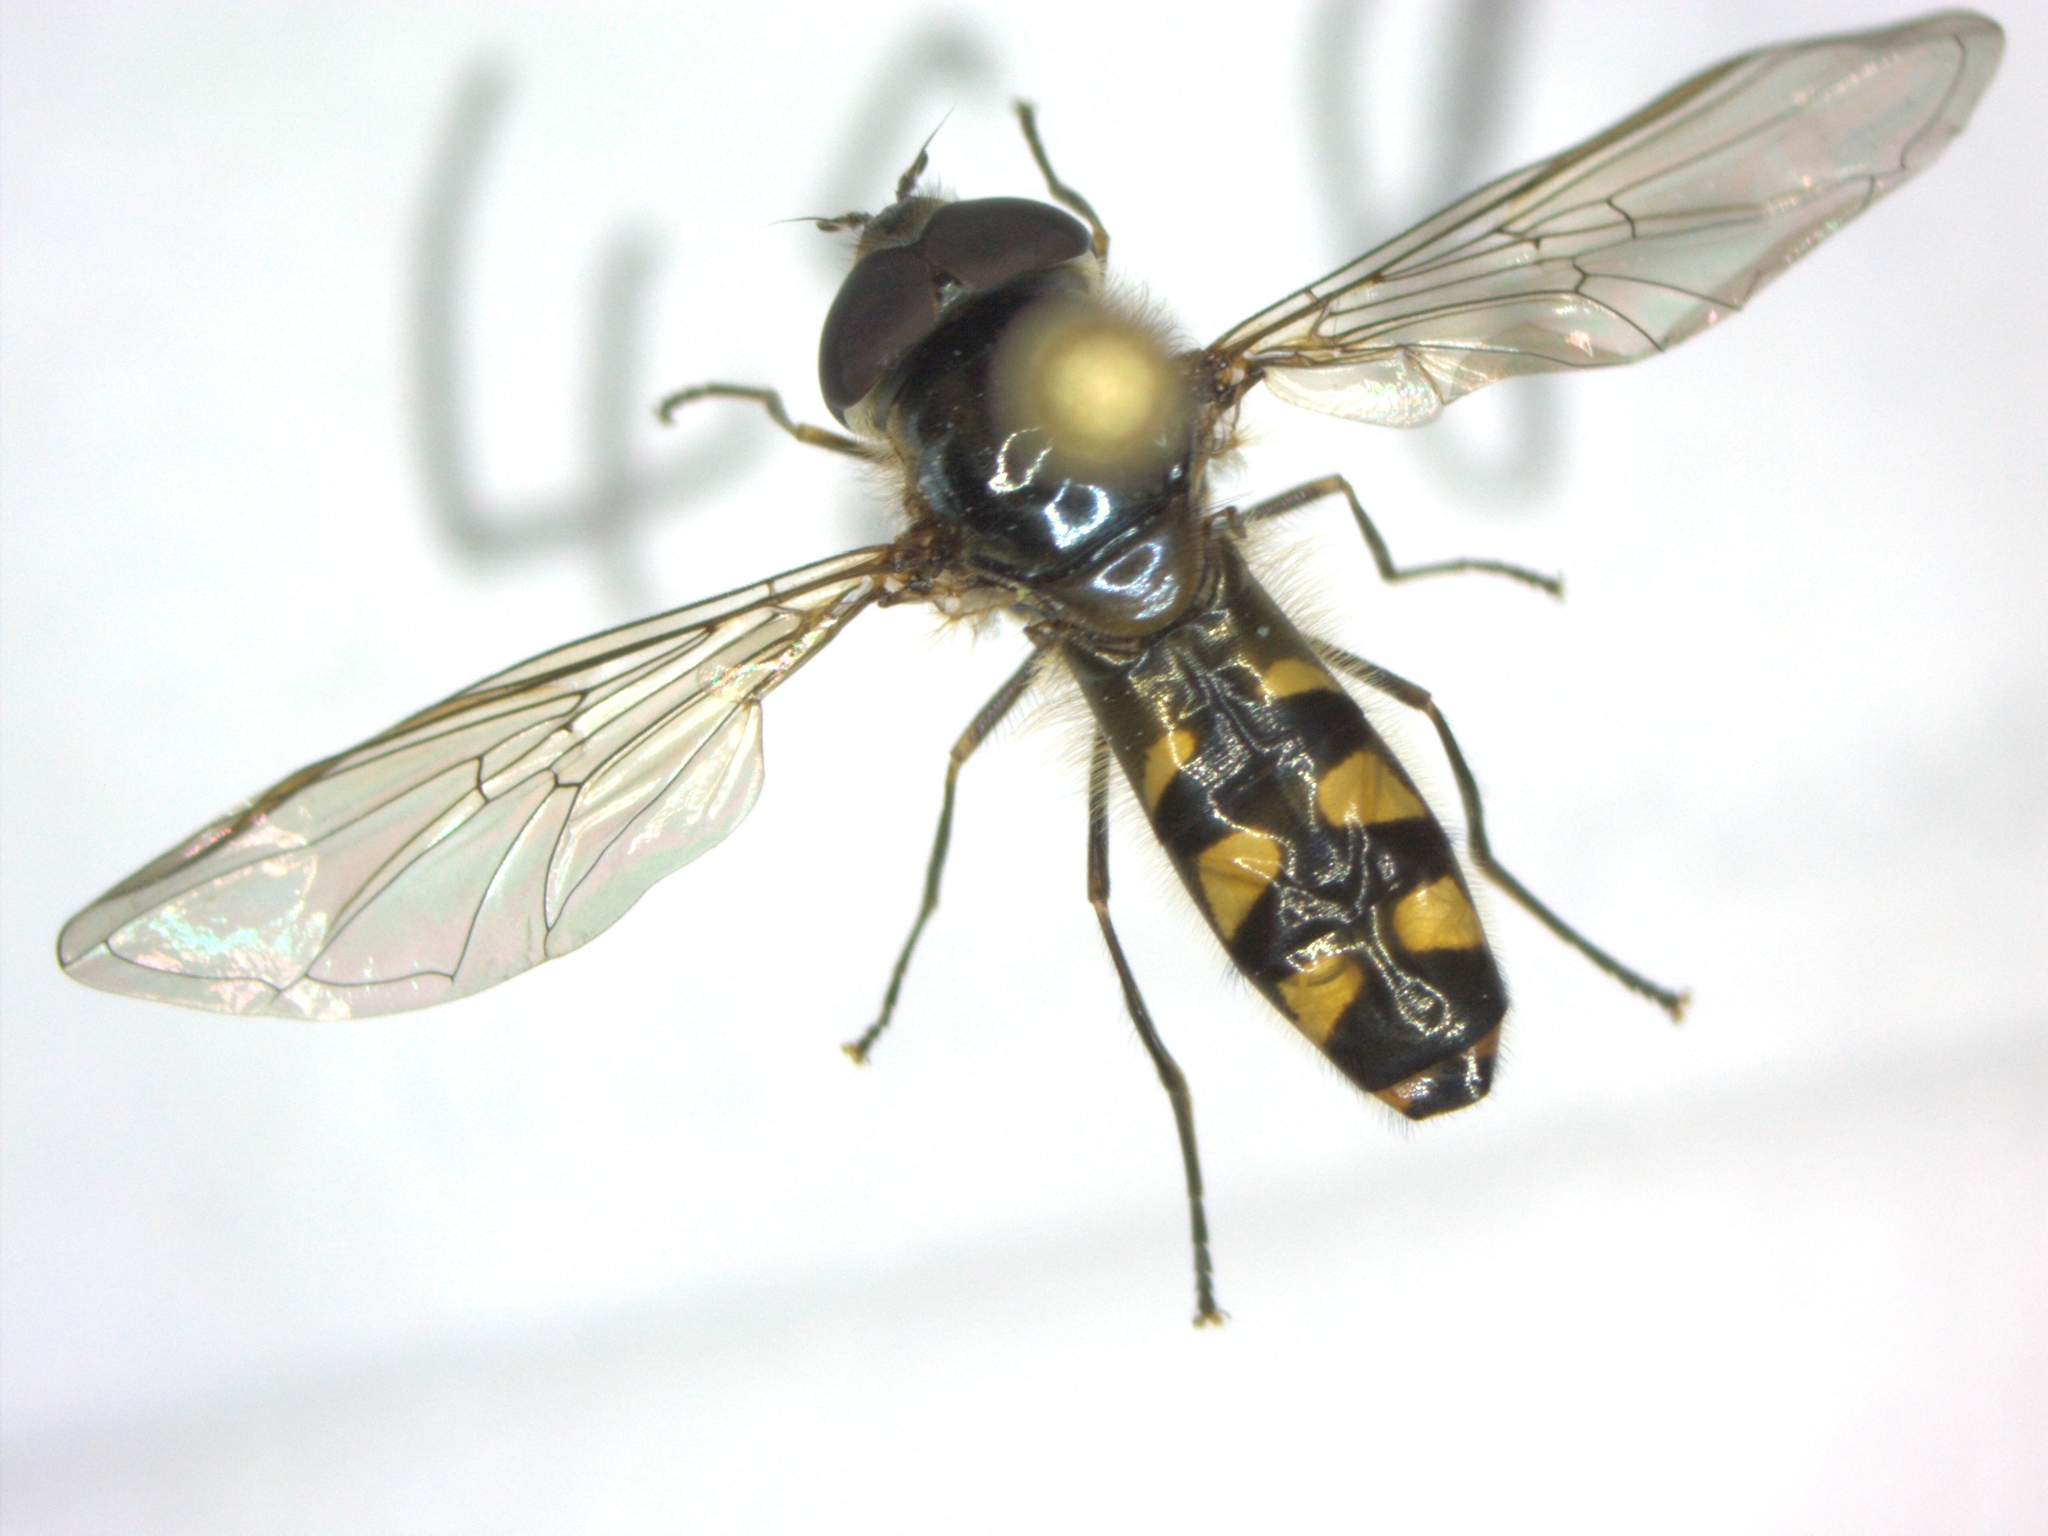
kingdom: Animalia
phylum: Arthropoda
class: Insecta
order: Diptera
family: Syrphidae
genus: Meliscaeva
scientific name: Meliscaeva auricollis
